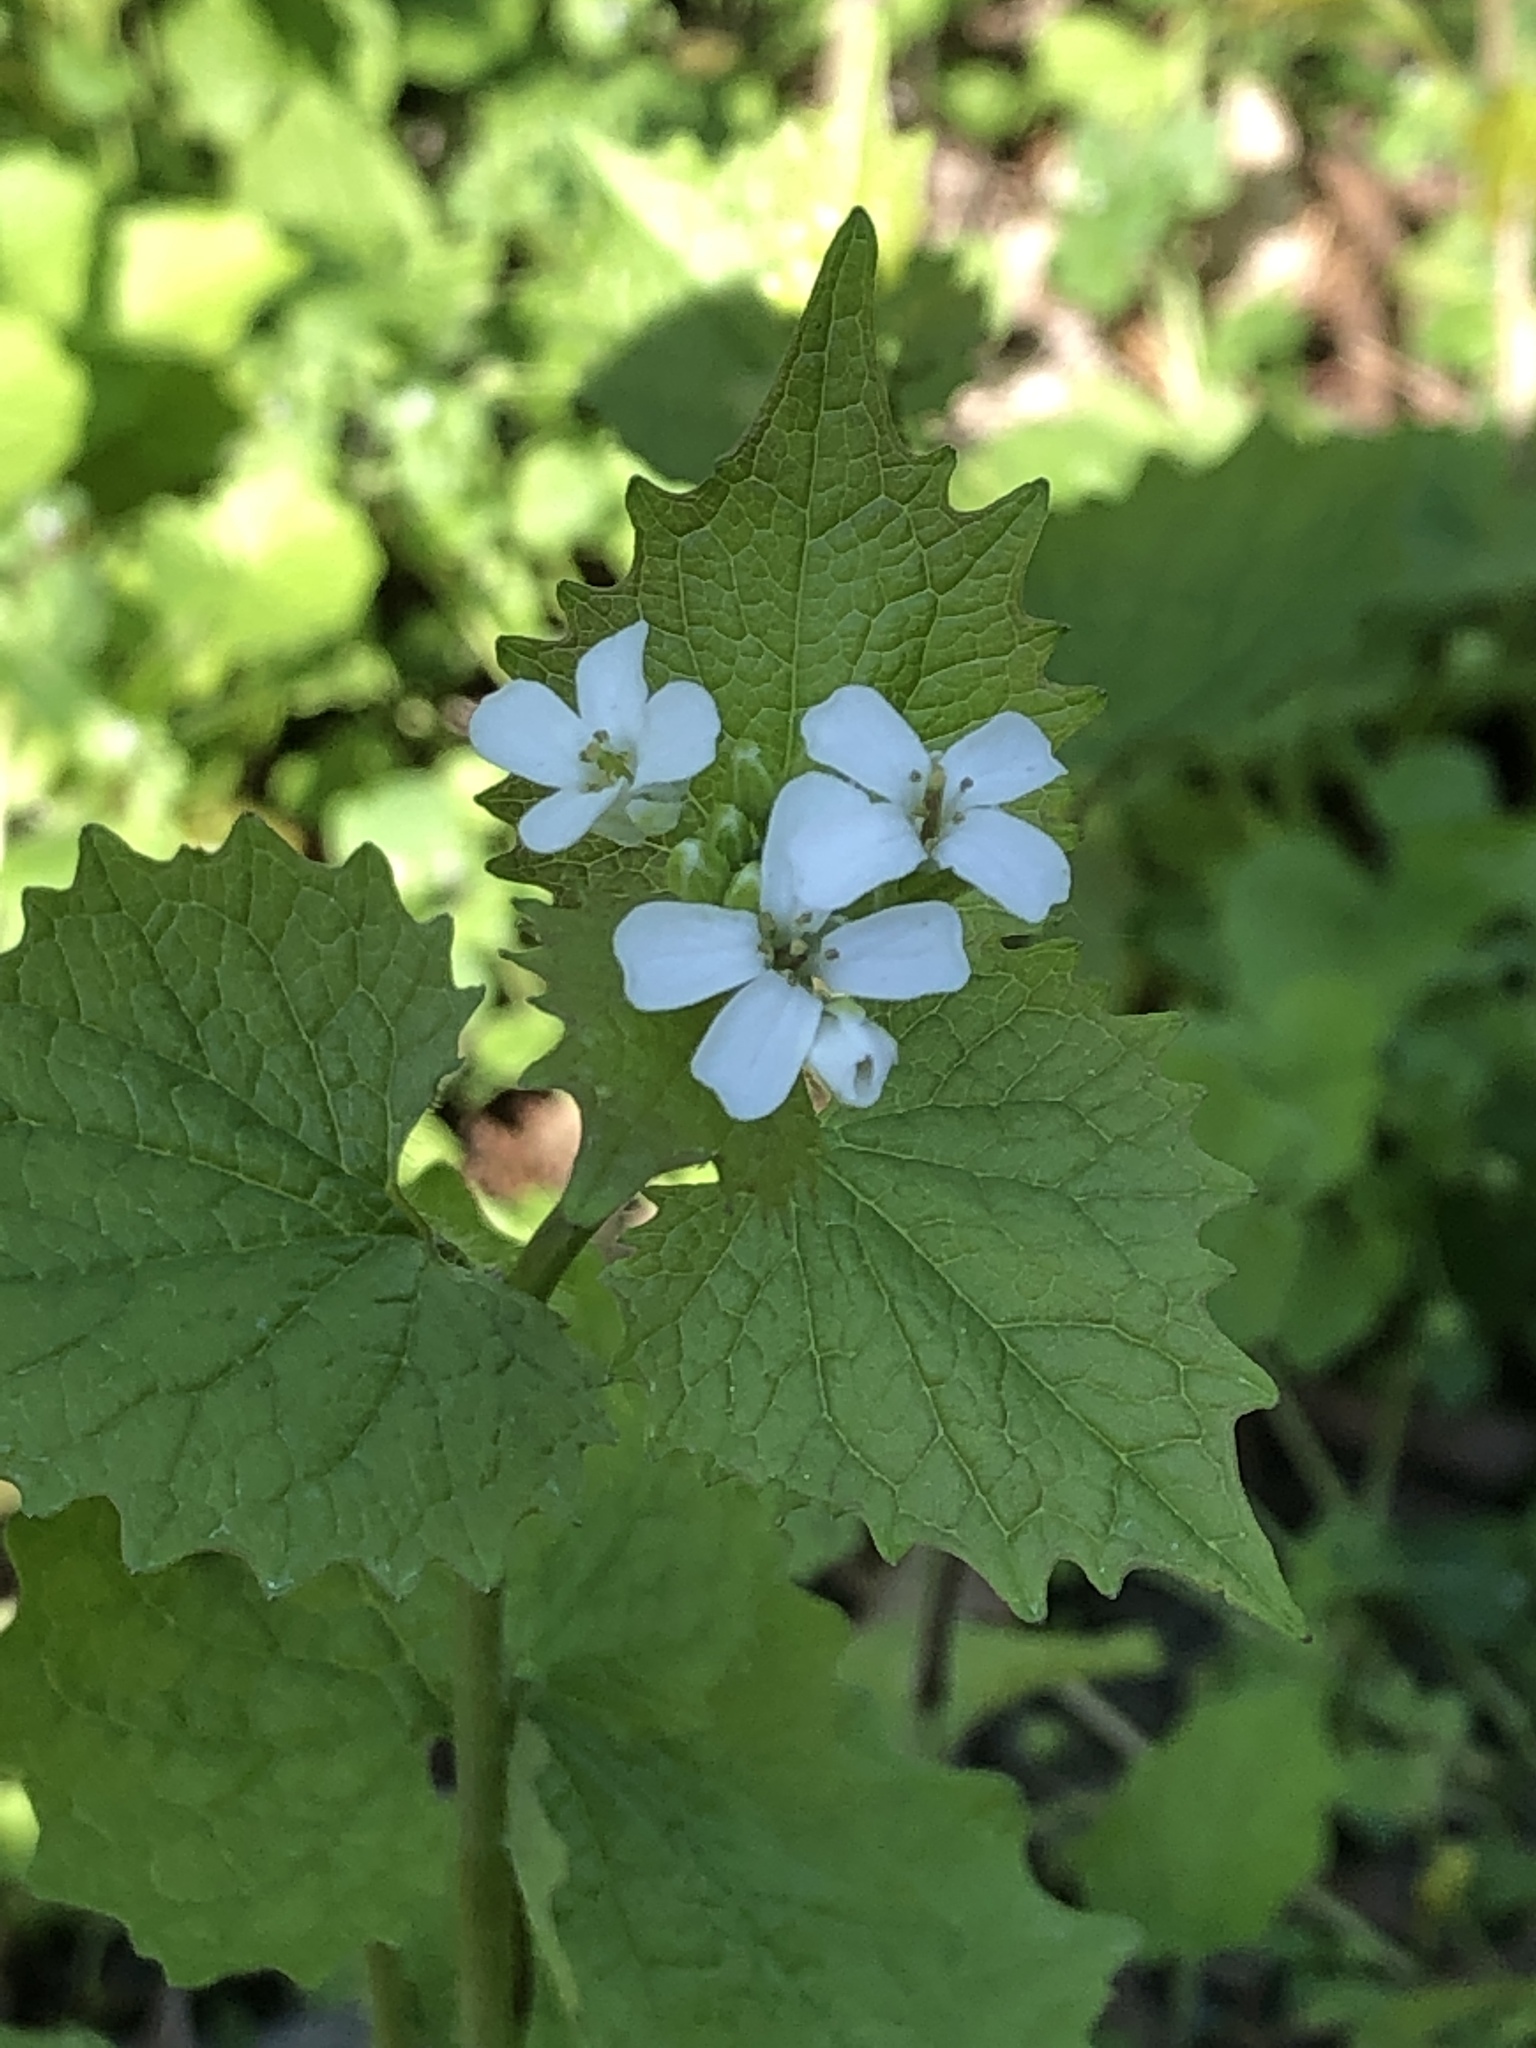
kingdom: Plantae
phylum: Tracheophyta
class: Magnoliopsida
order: Brassicales
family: Brassicaceae
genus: Alliaria
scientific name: Alliaria petiolata
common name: Garlic mustard
